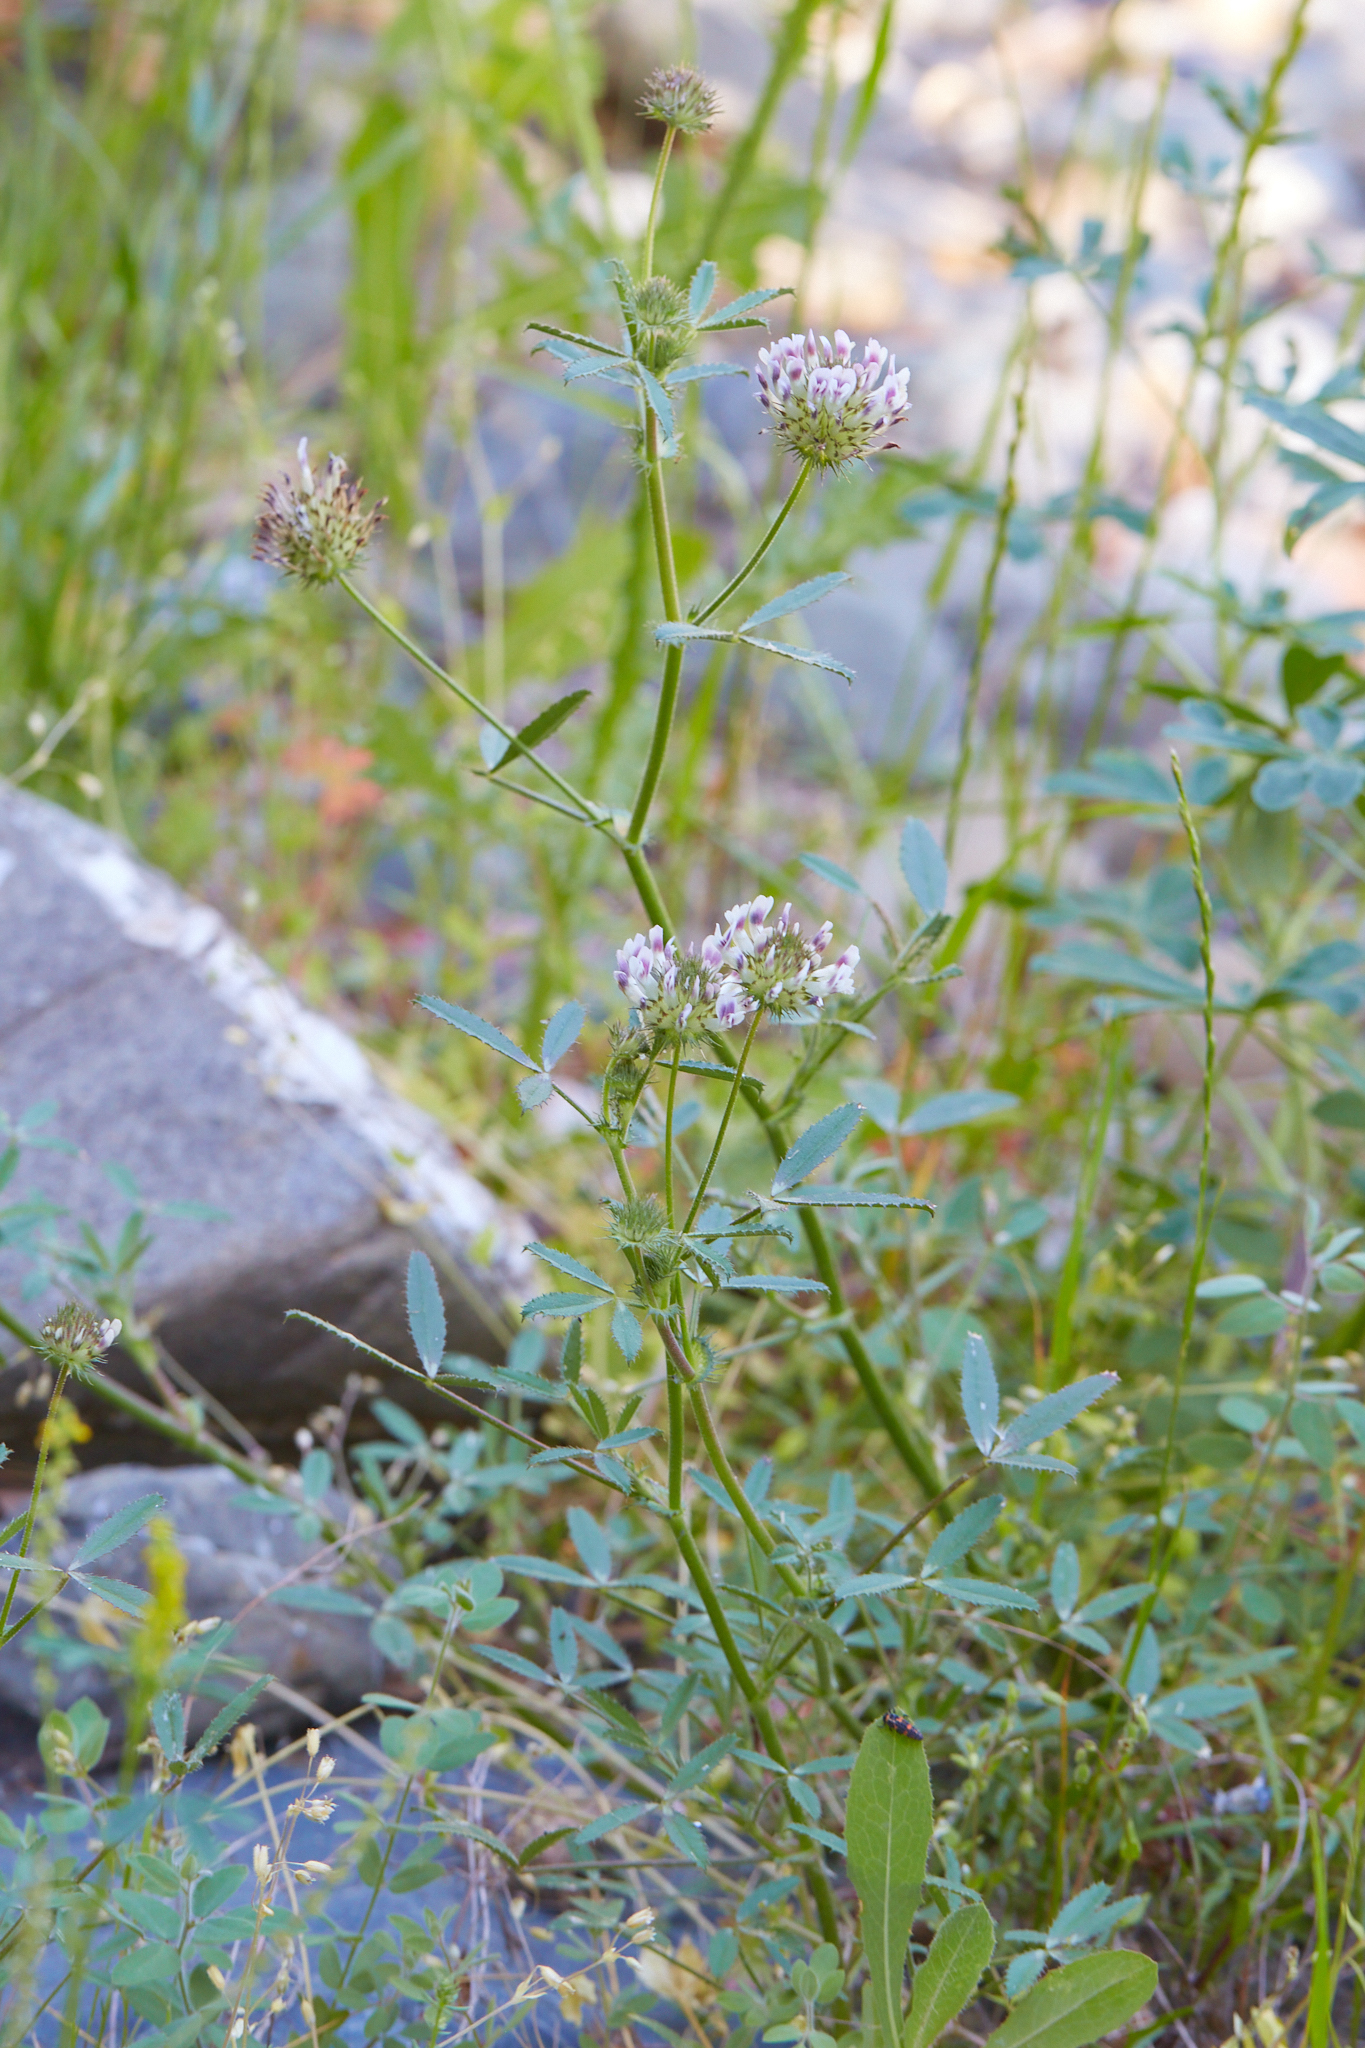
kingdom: Plantae
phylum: Tracheophyta
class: Magnoliopsida
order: Fabales
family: Fabaceae
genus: Trifolium
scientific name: Trifolium obtusiflorum
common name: Clammy clover
